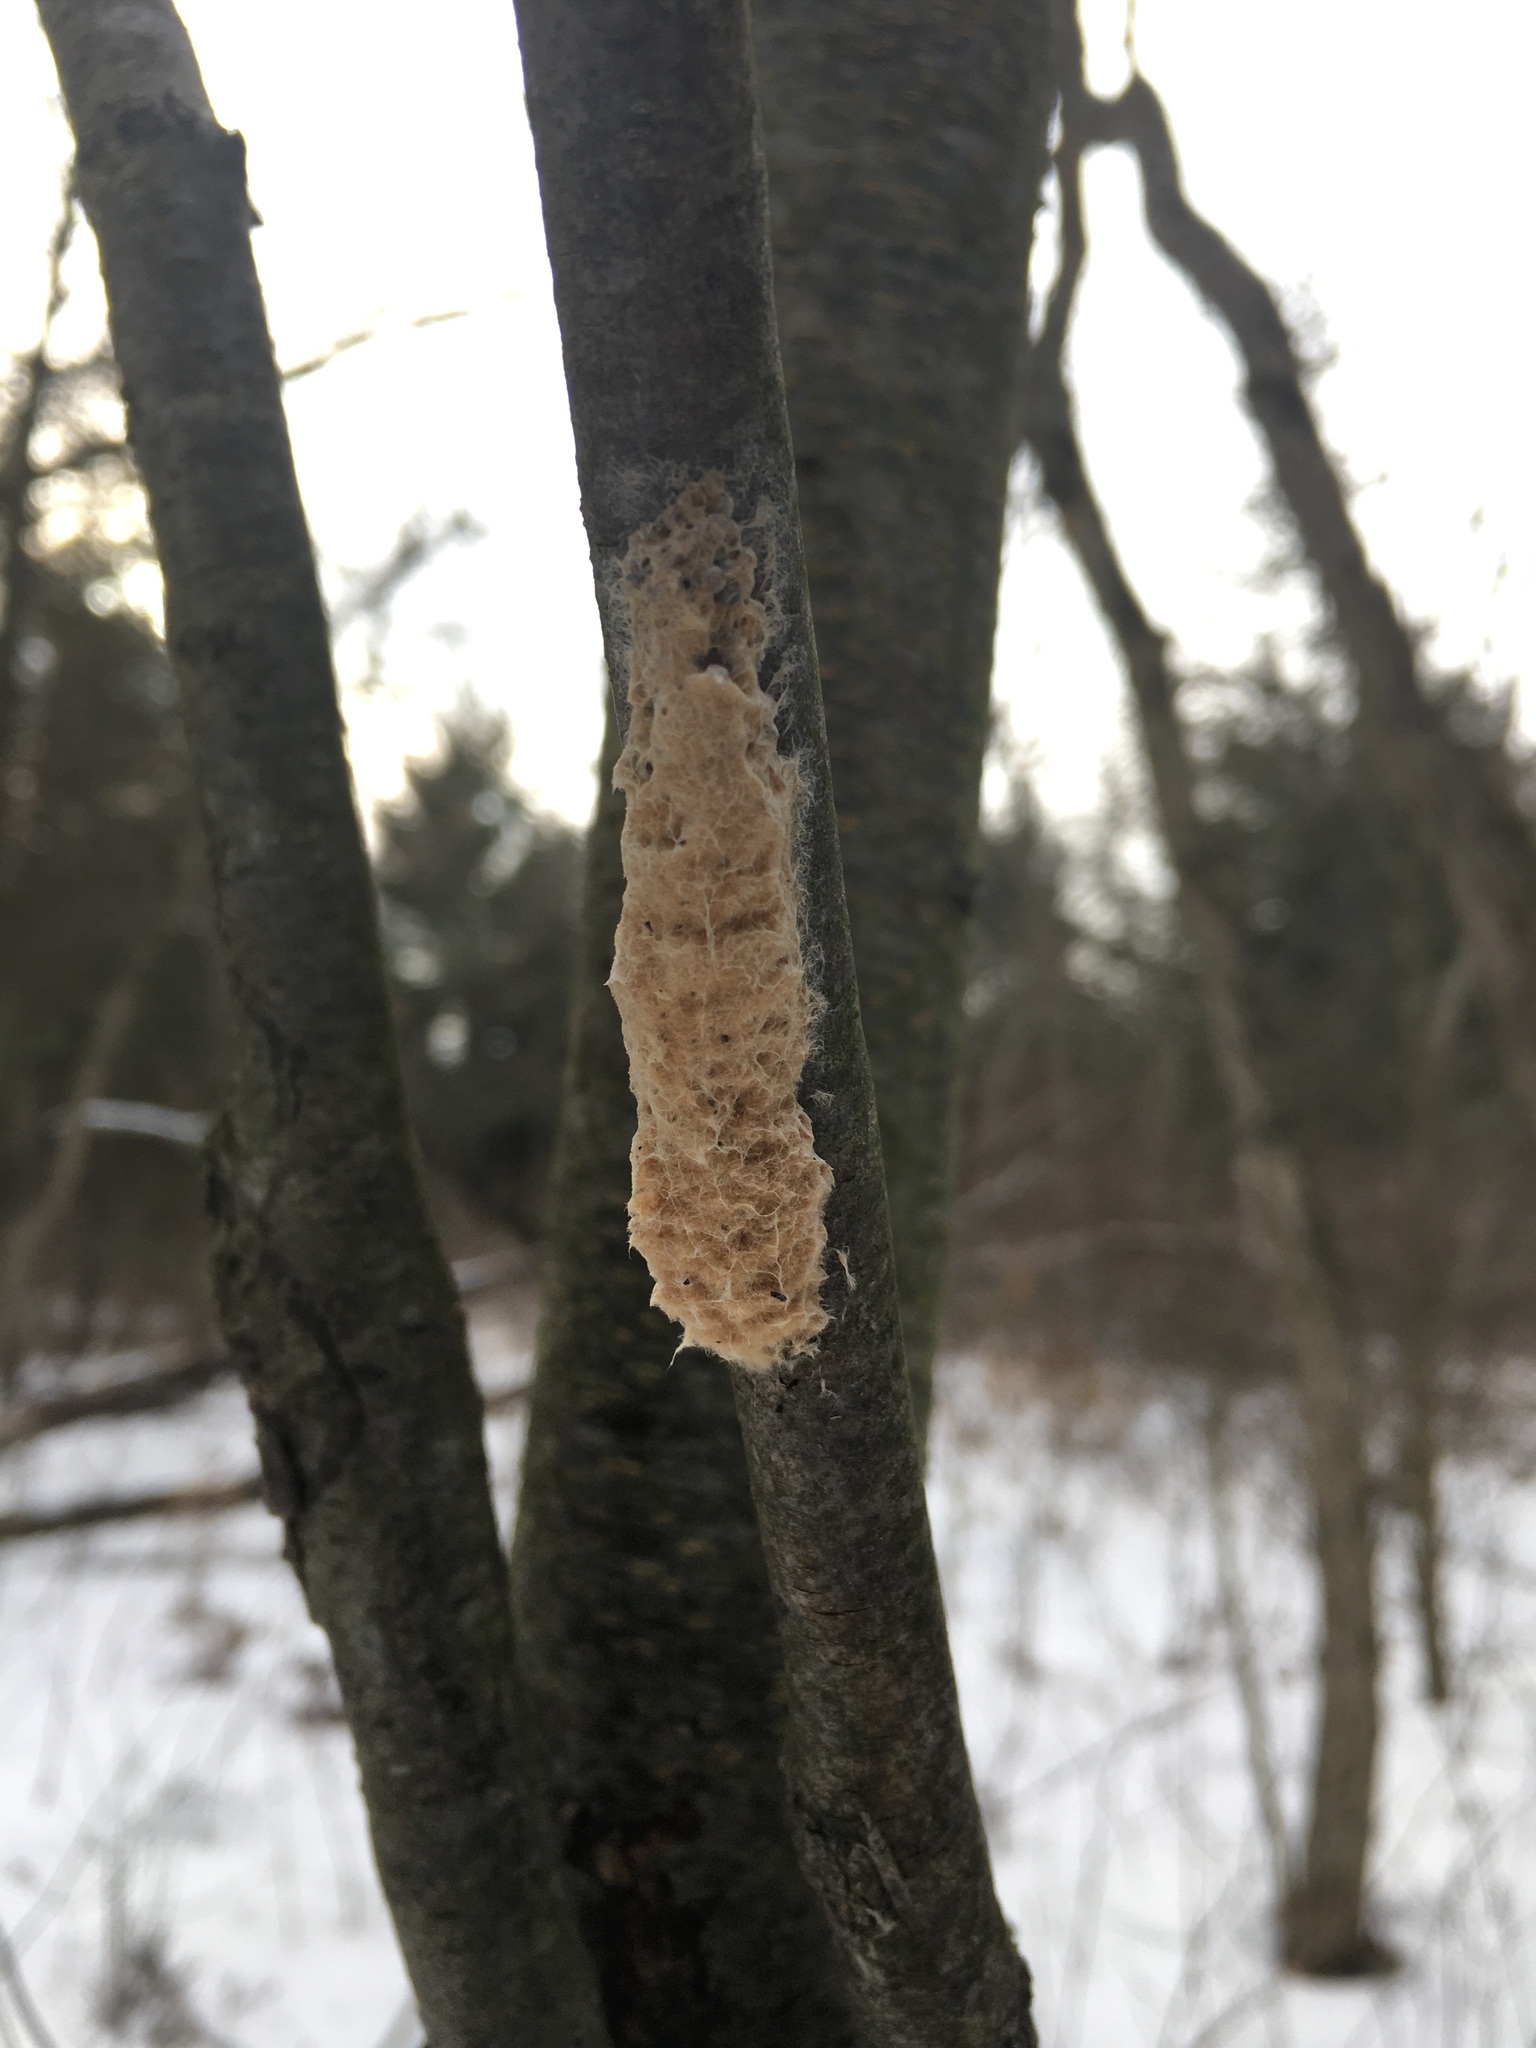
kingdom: Animalia
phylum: Arthropoda
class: Insecta
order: Lepidoptera
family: Erebidae
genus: Lymantria
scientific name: Lymantria dispar
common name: Gypsy moth
